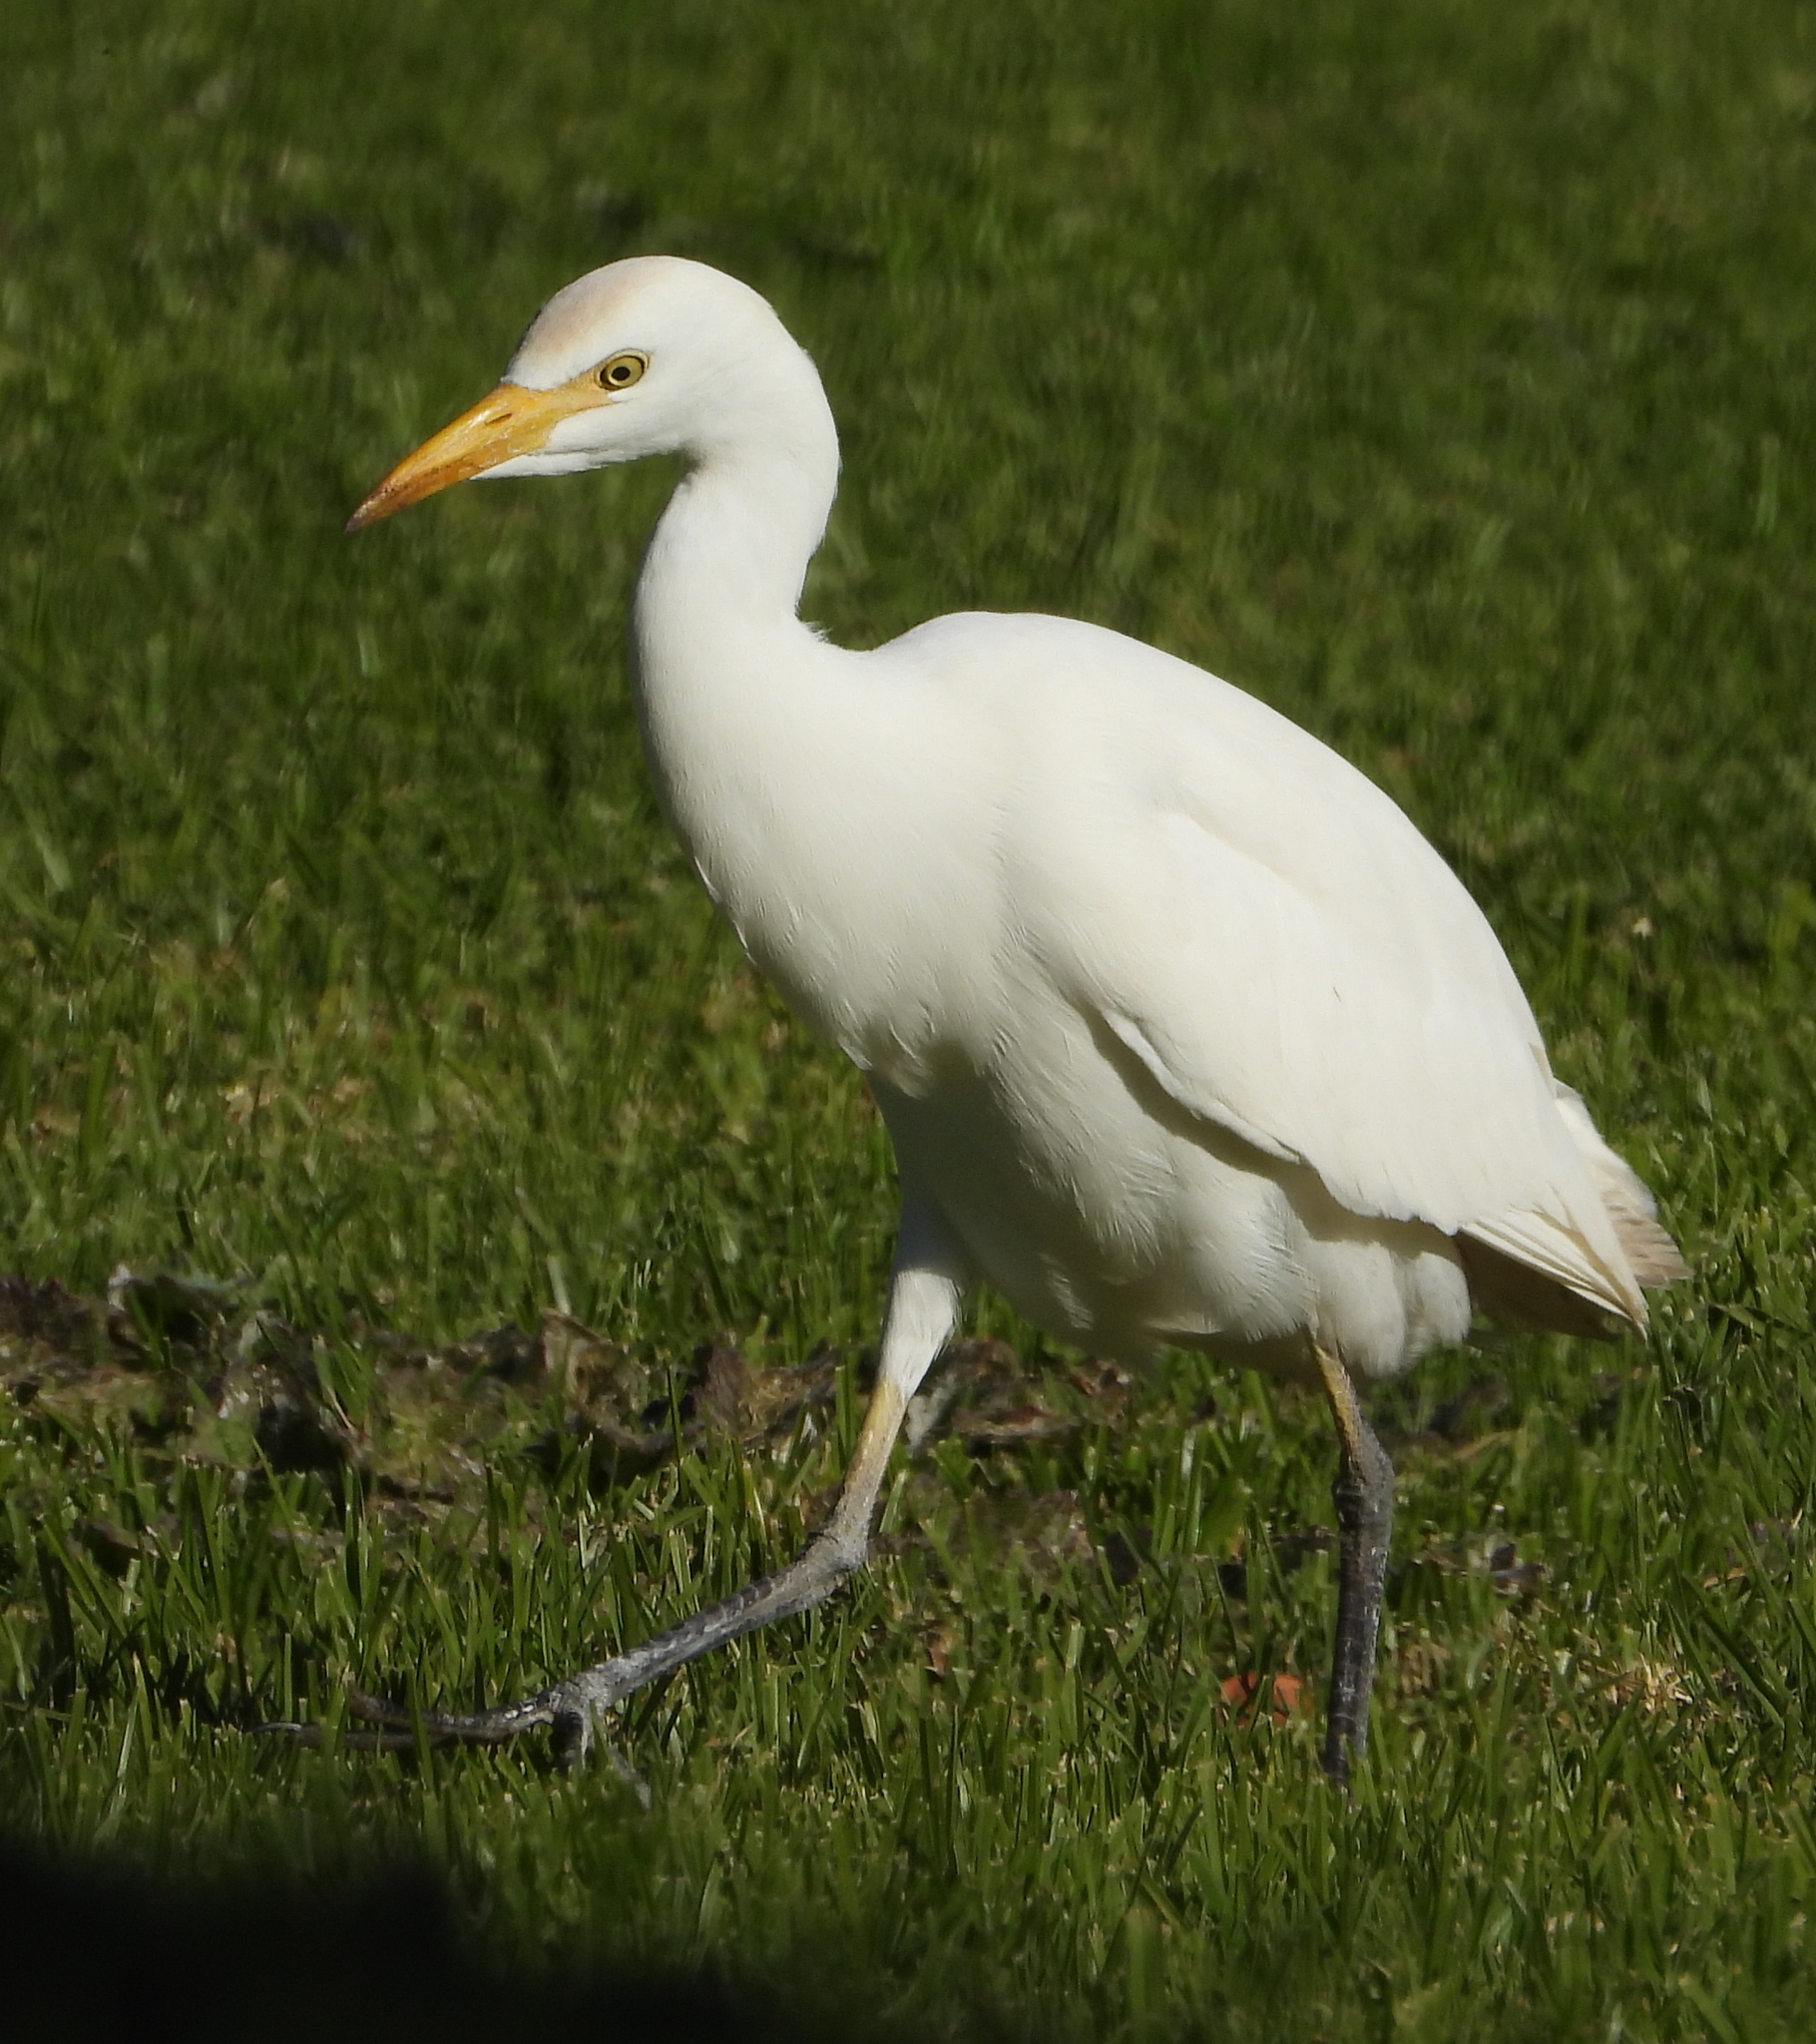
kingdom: Animalia
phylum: Chordata
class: Aves
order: Pelecaniformes
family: Ardeidae
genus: Bubulcus
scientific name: Bubulcus ibis
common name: Cattle egret
